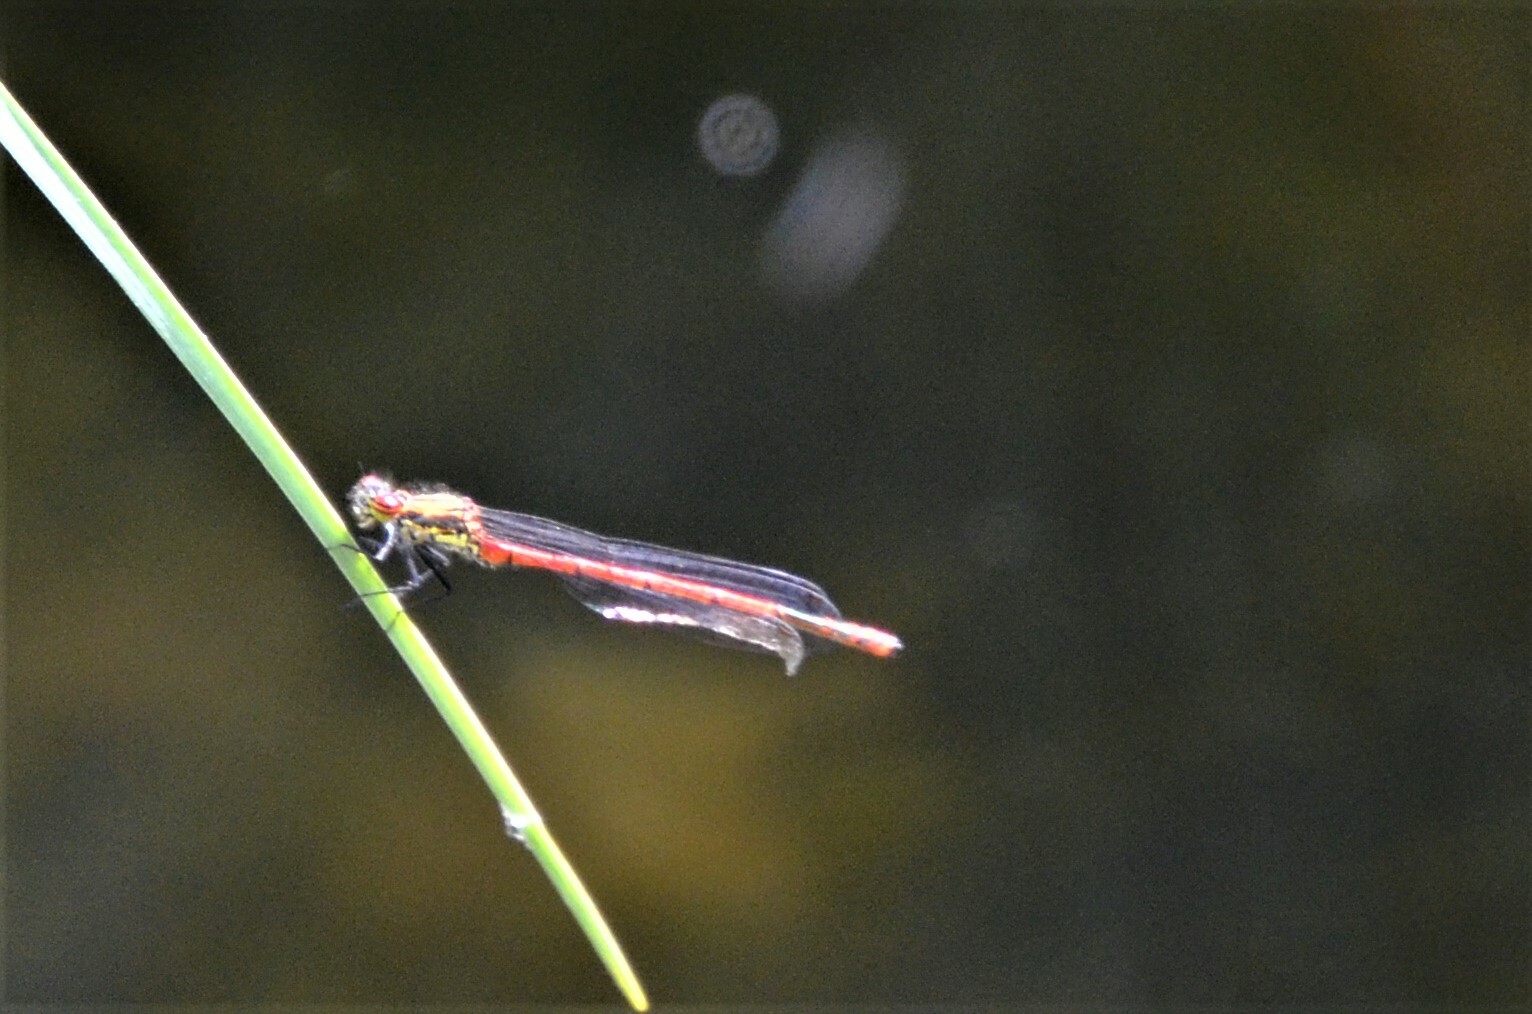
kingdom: Animalia
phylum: Arthropoda
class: Insecta
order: Odonata
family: Coenagrionidae
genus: Pyrrhosoma
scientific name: Pyrrhosoma nymphula
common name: Large red damsel
